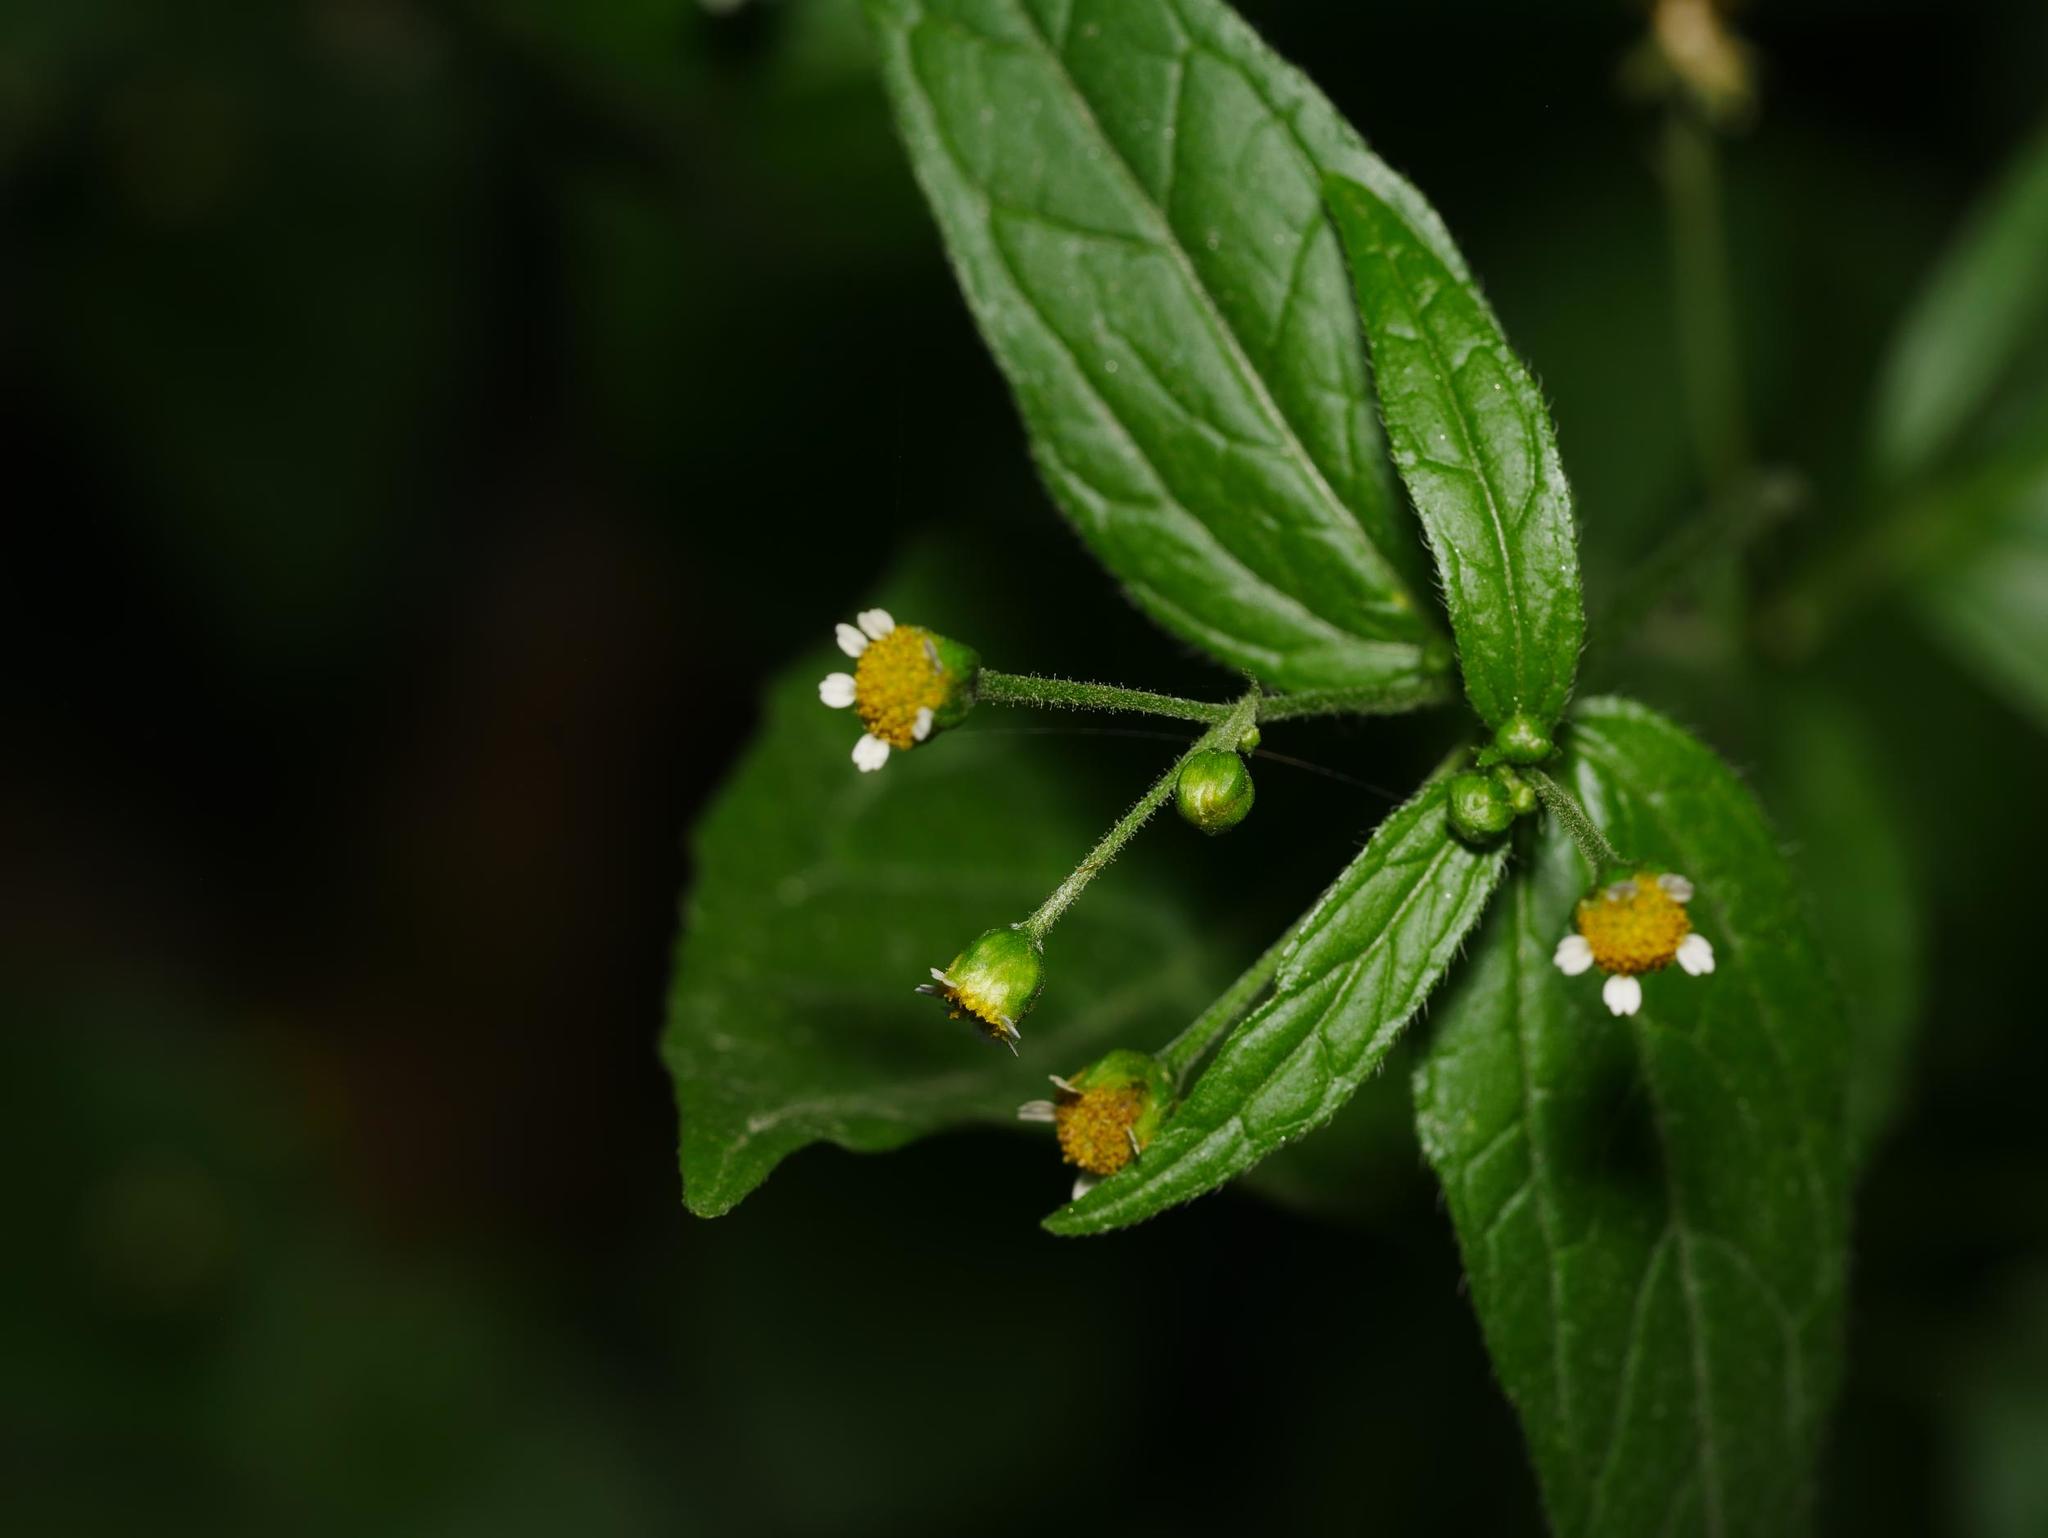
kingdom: Plantae
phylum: Tracheophyta
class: Magnoliopsida
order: Asterales
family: Asteraceae
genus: Galinsoga
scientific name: Galinsoga parviflora
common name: Gallant soldier
